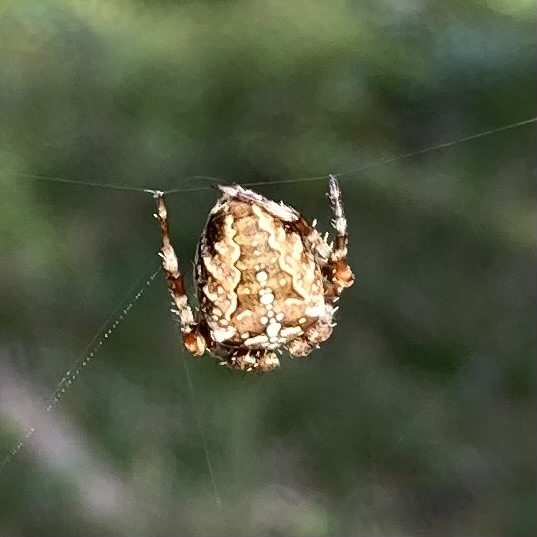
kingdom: Animalia
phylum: Arthropoda
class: Arachnida
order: Araneae
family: Araneidae
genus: Araneus
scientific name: Araneus diadematus
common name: Cross orbweaver
